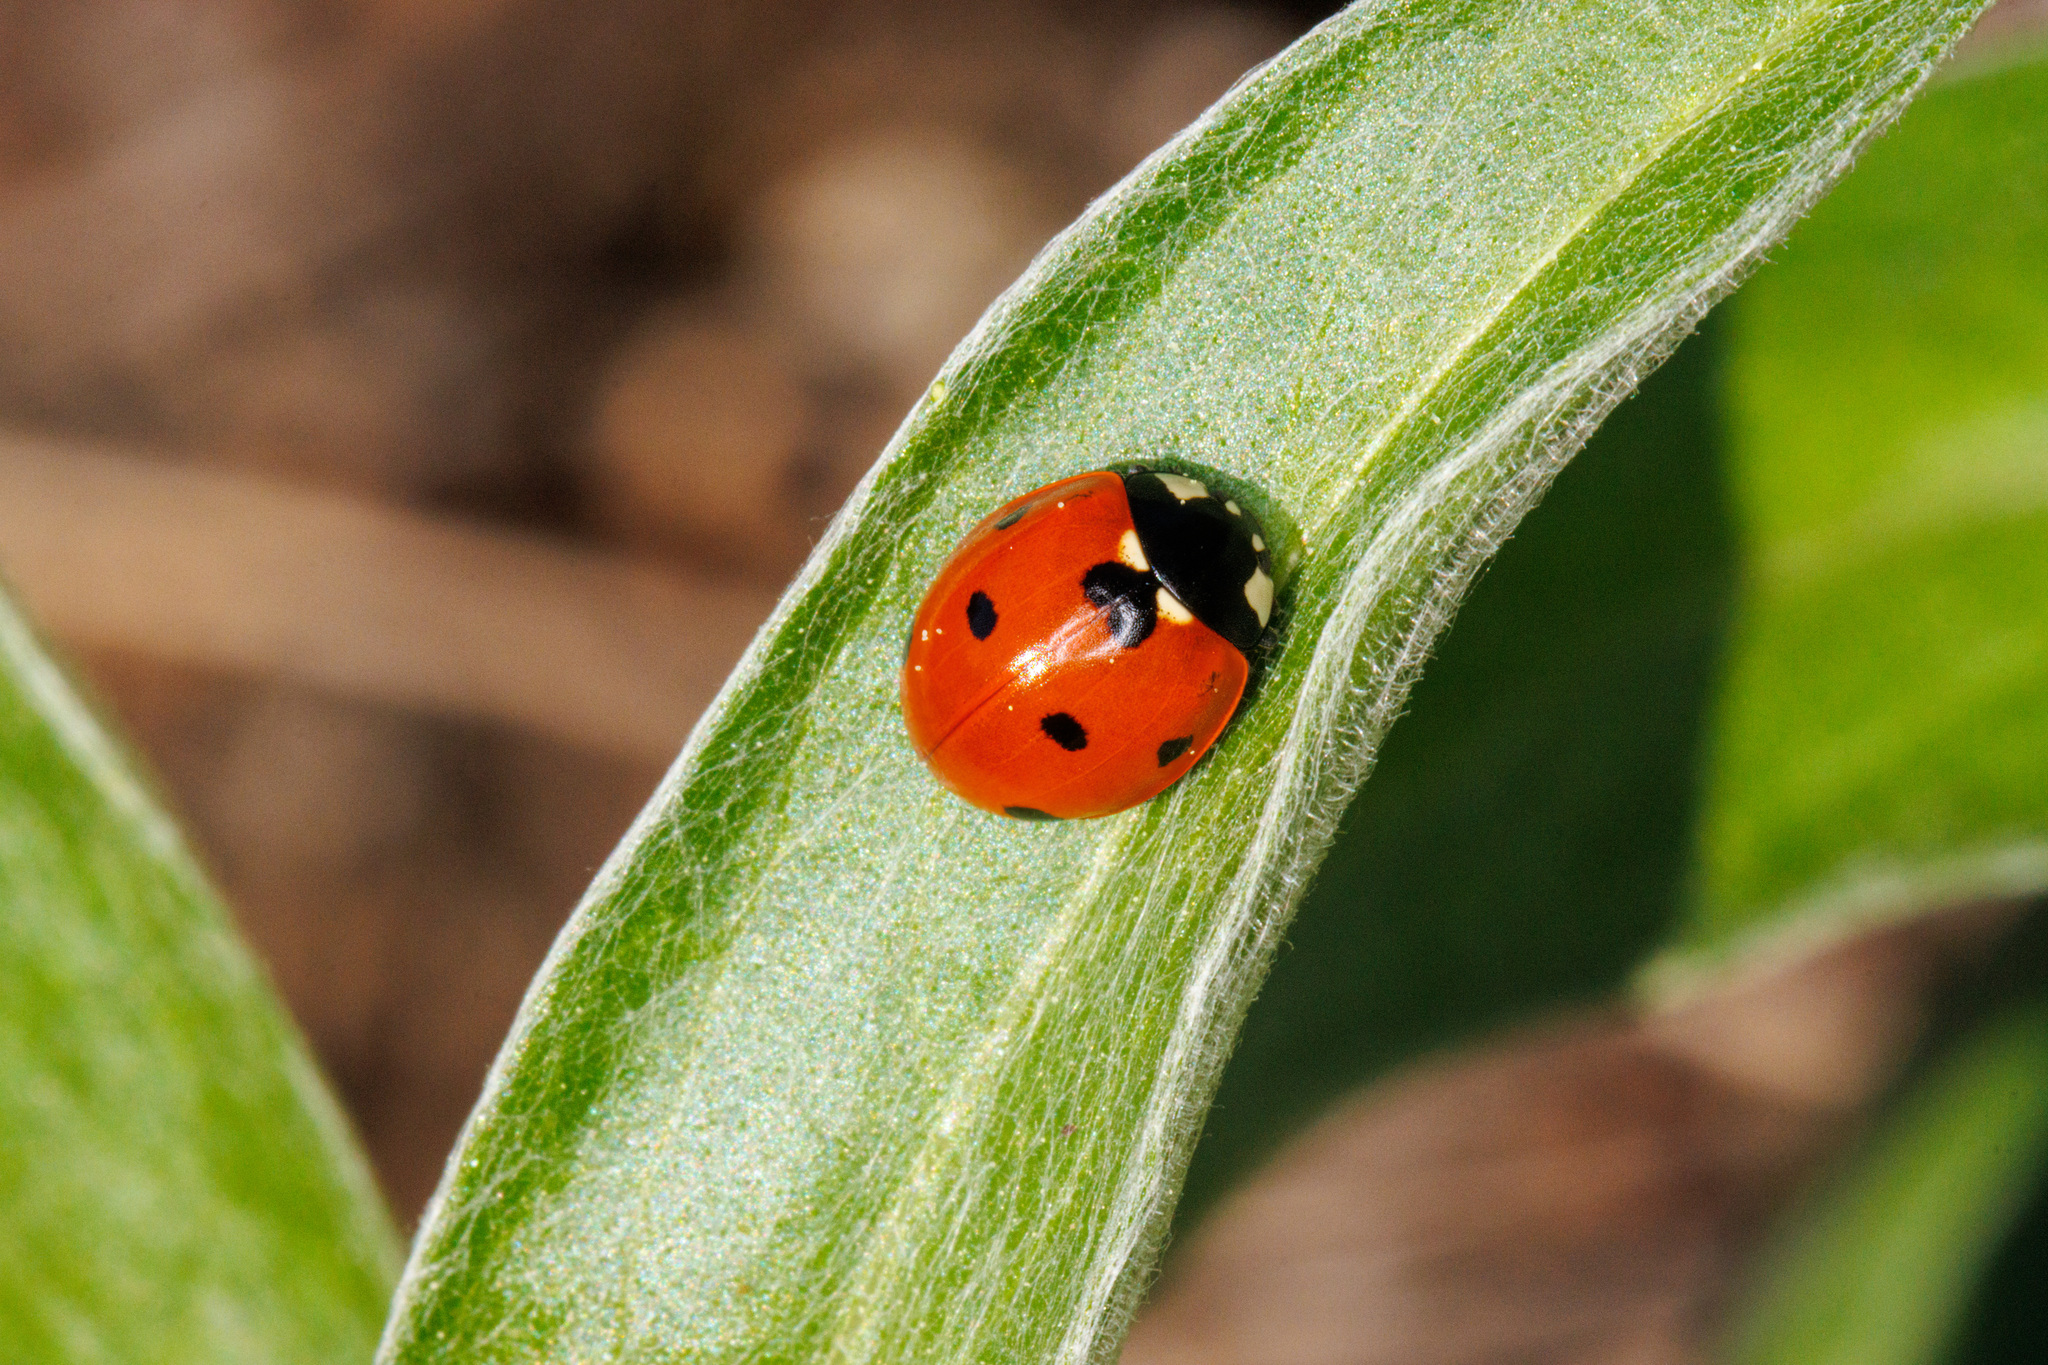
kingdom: Animalia
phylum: Arthropoda
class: Insecta
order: Coleoptera
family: Coccinellidae
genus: Coccinella
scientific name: Coccinella septempunctata
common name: Sevenspotted lady beetle
